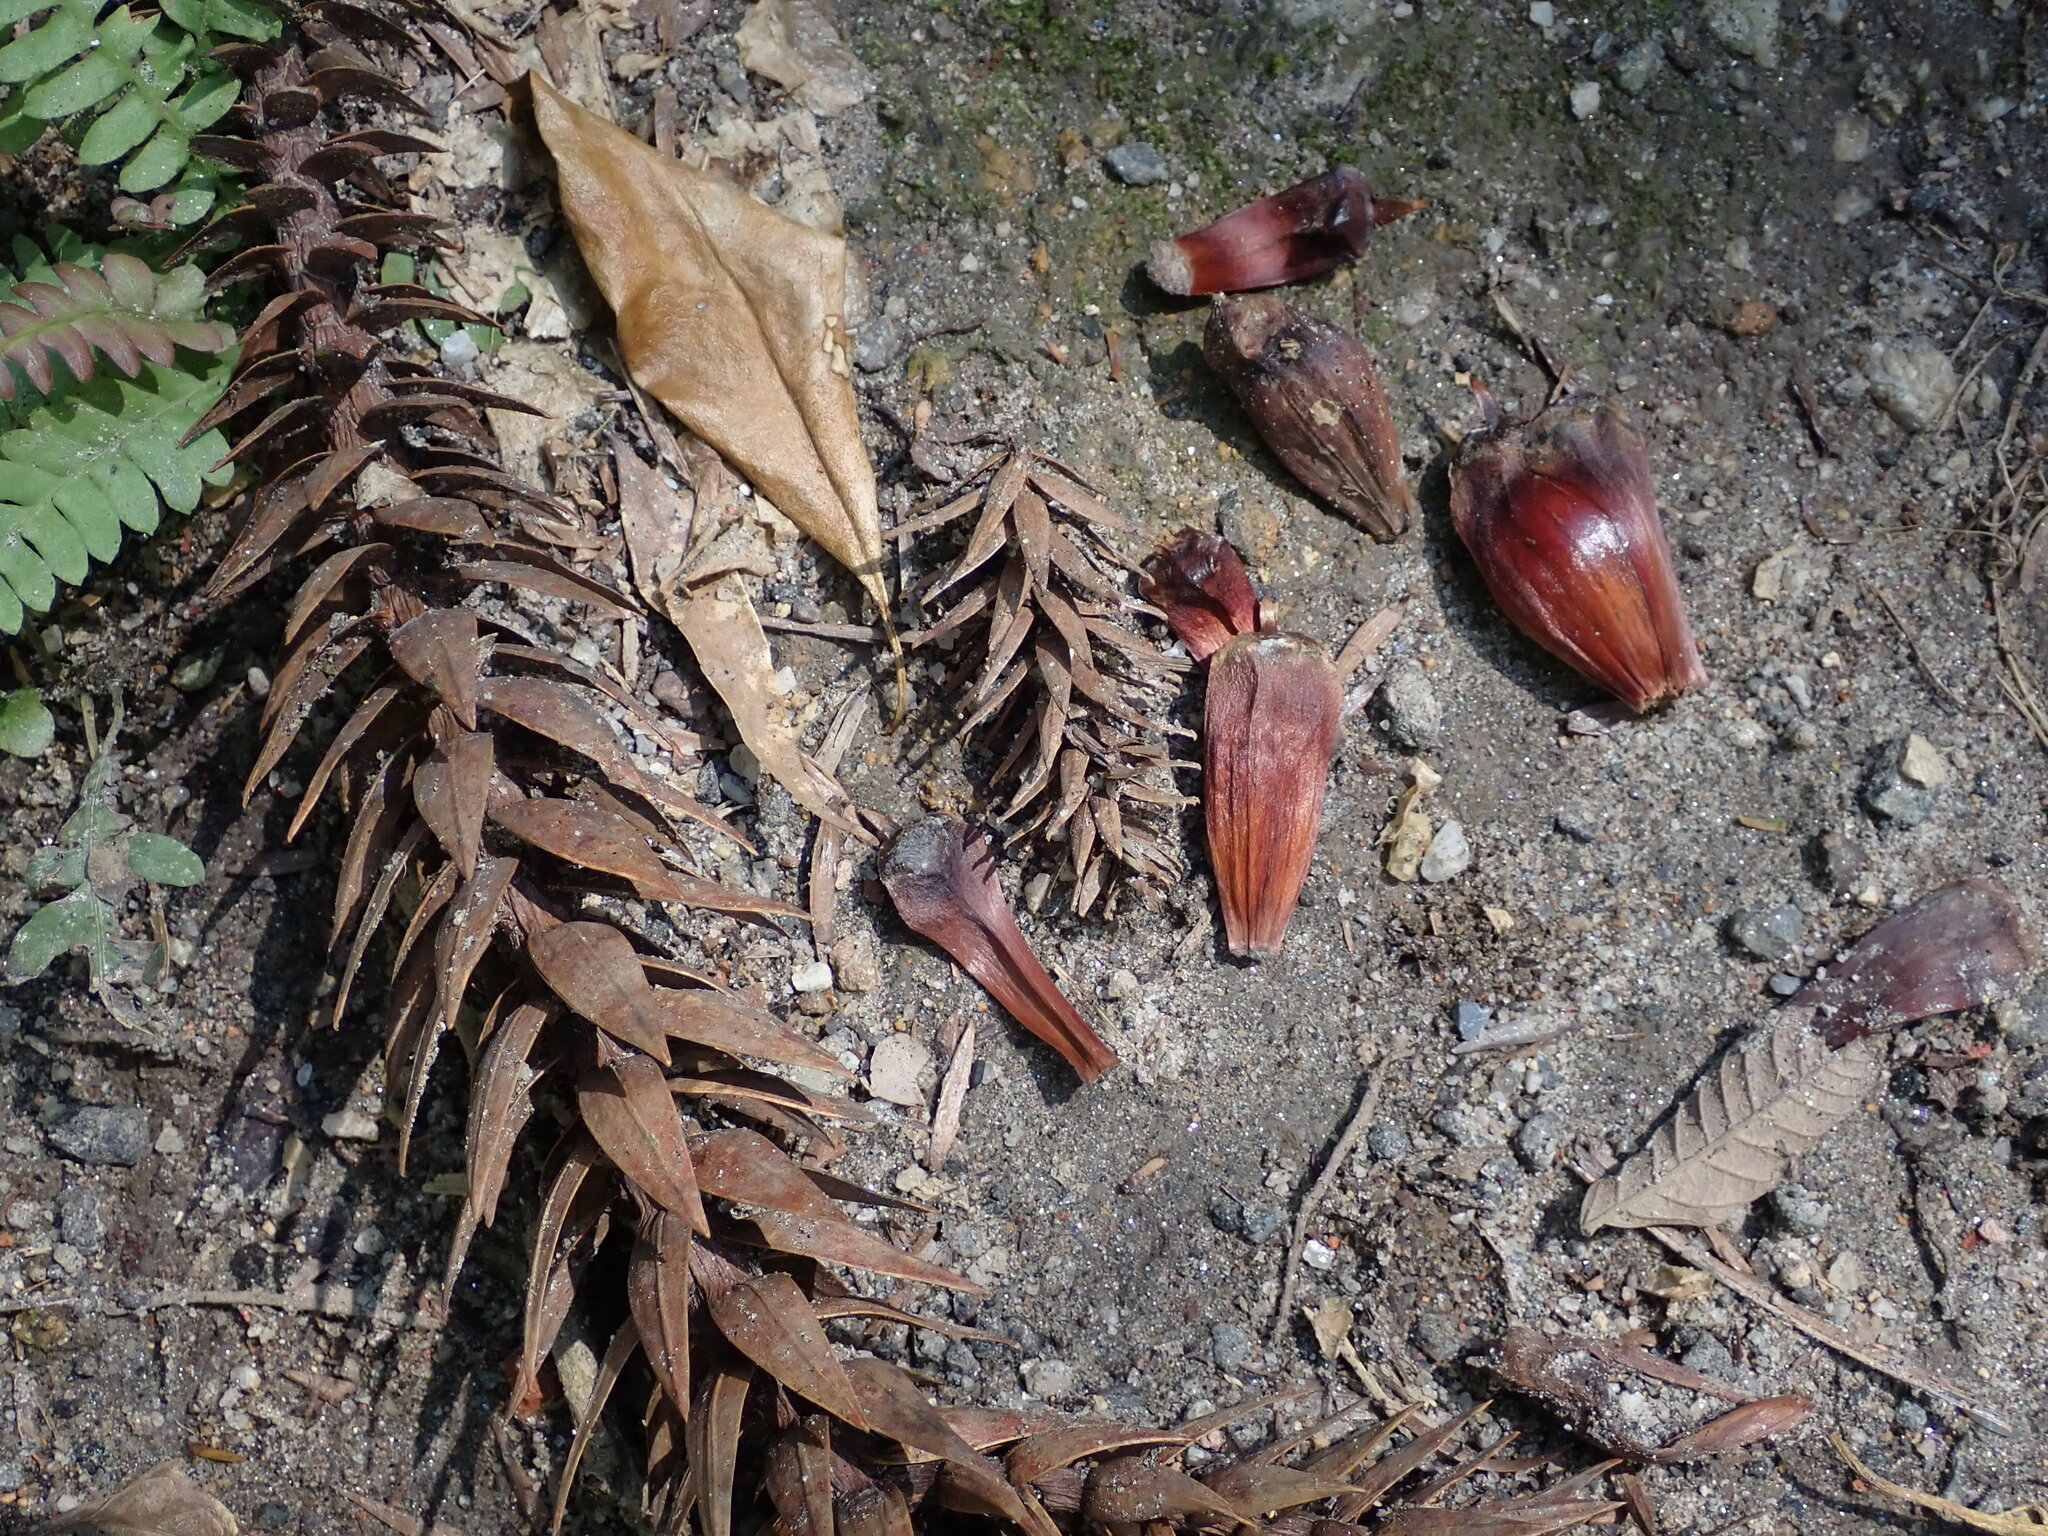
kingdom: Plantae
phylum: Tracheophyta
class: Pinopsida
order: Pinales
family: Araucariaceae
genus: Araucaria
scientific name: Araucaria angustifolia
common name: Candelabra tree
